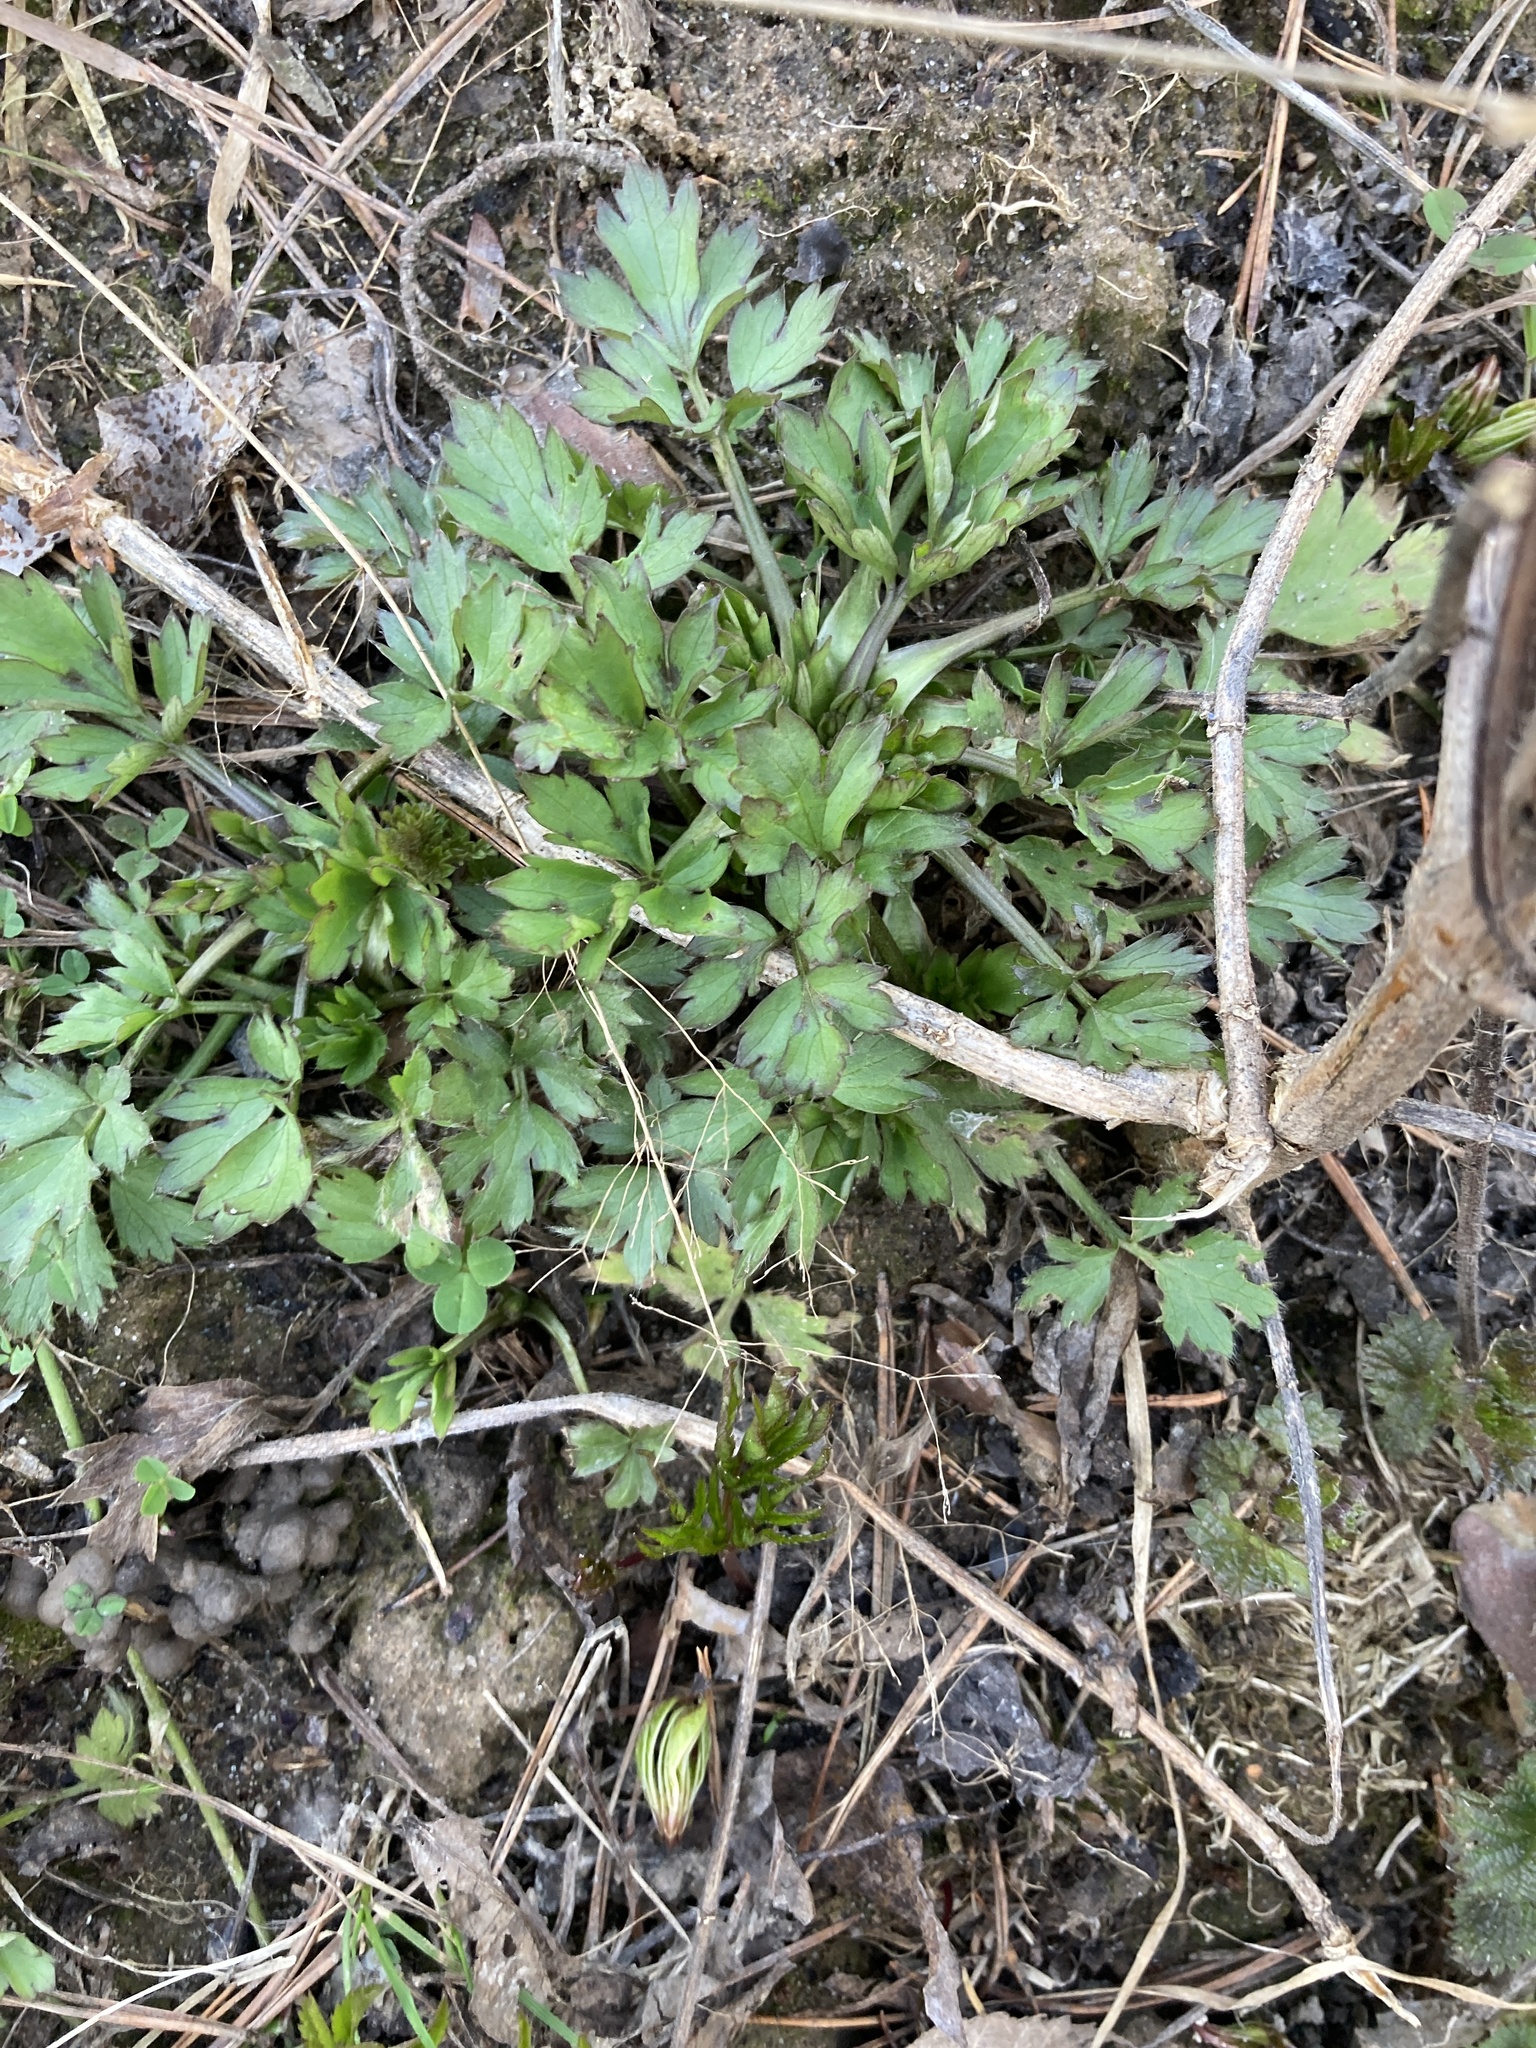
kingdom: Plantae
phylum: Tracheophyta
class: Magnoliopsida
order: Ranunculales
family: Ranunculaceae
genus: Ranunculus
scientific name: Ranunculus repens
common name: Creeping buttercup
